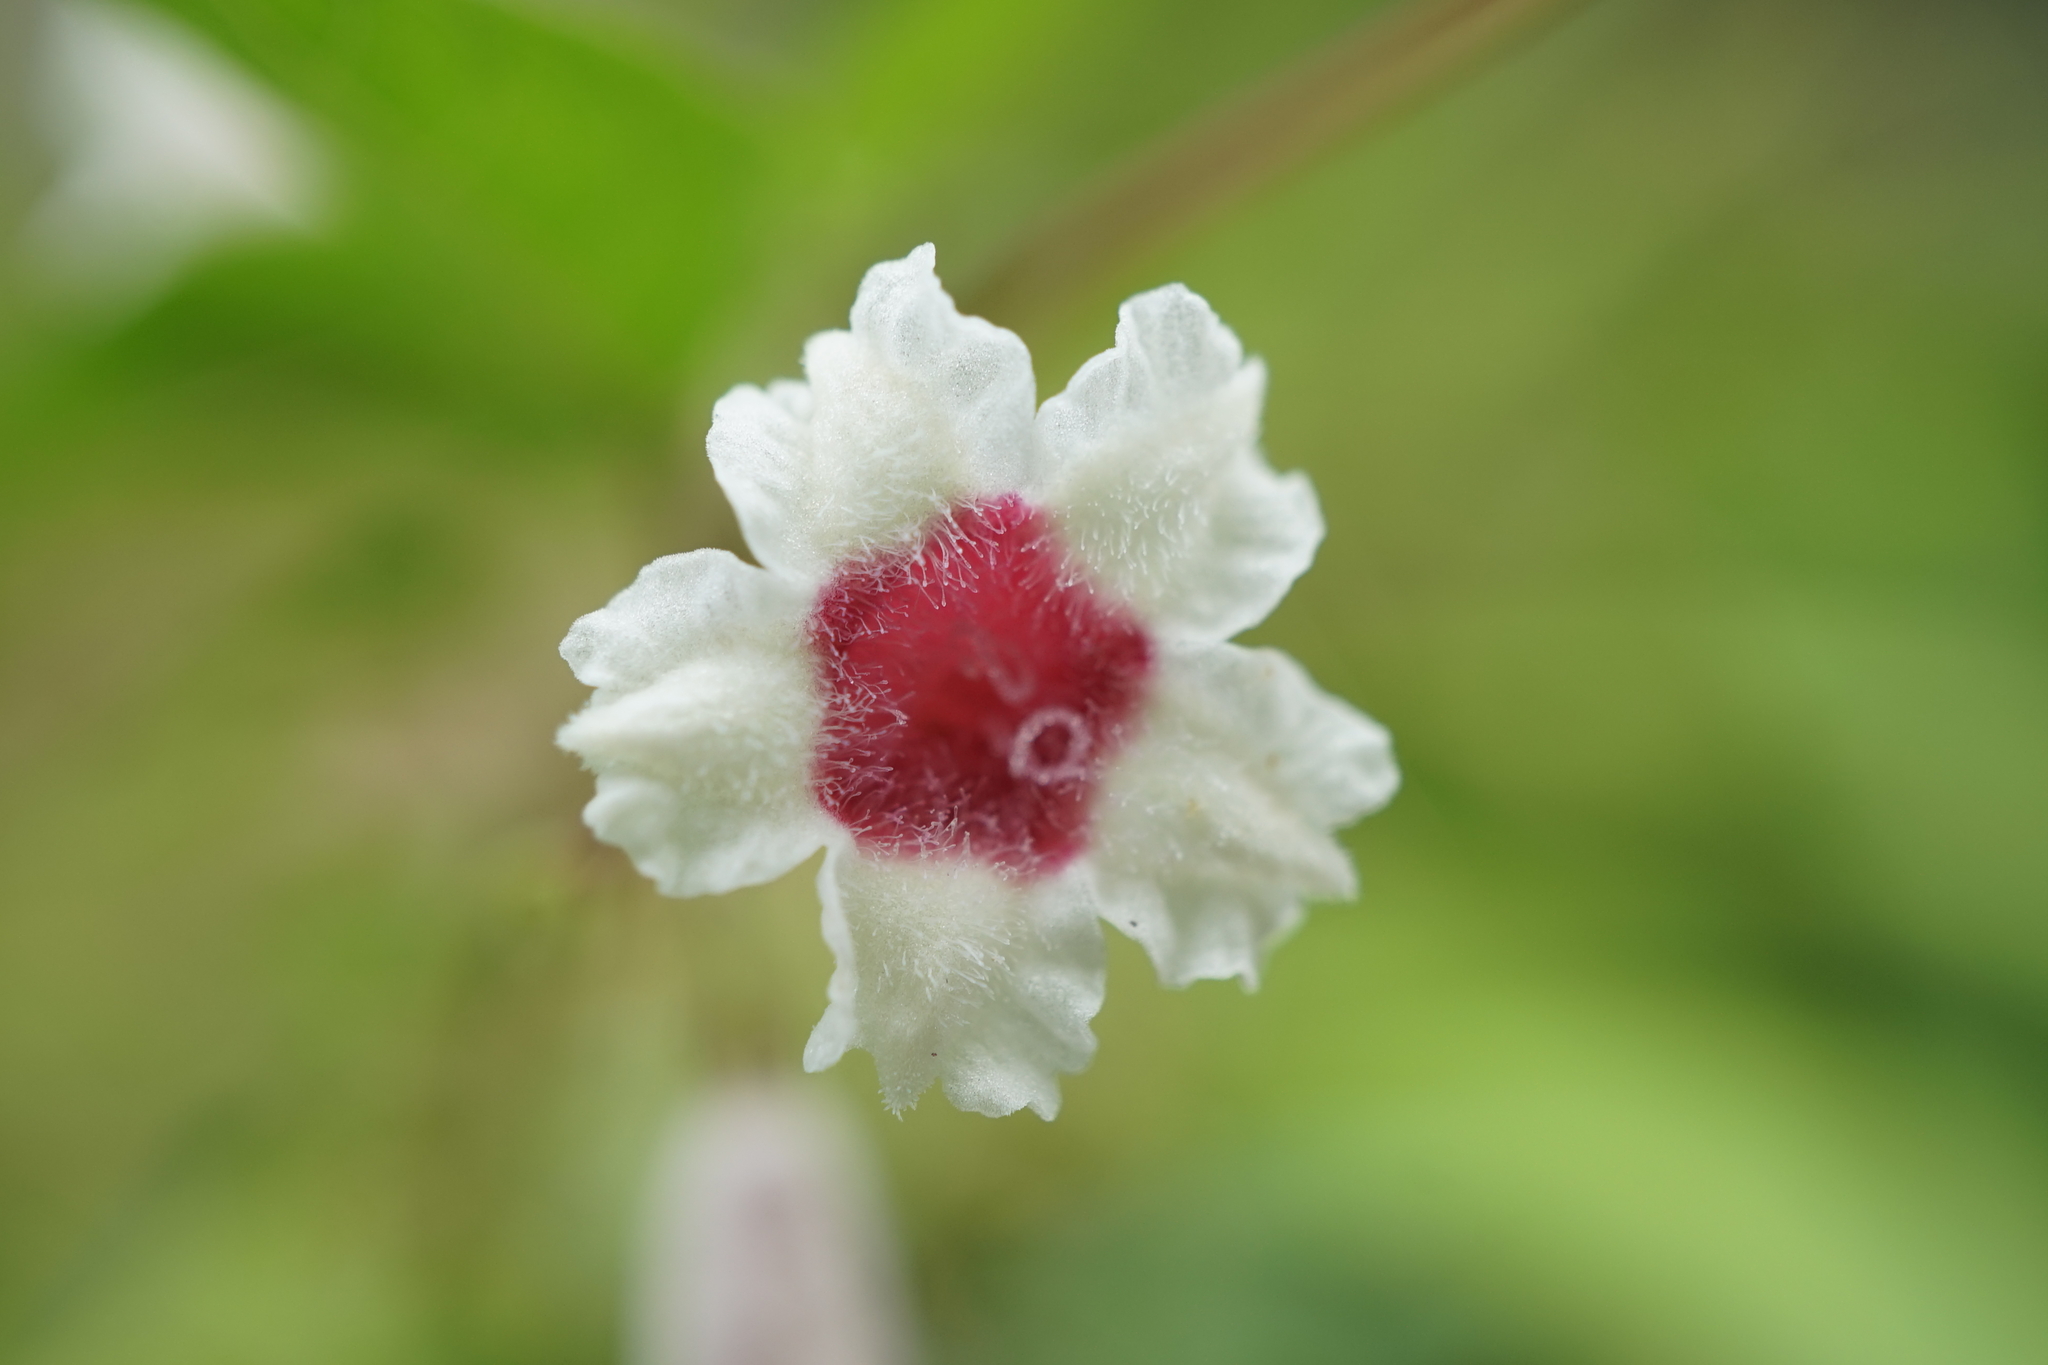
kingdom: Plantae
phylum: Tracheophyta
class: Magnoliopsida
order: Gentianales
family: Rubiaceae
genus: Paederia
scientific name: Paederia foetida
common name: Stinkvine
